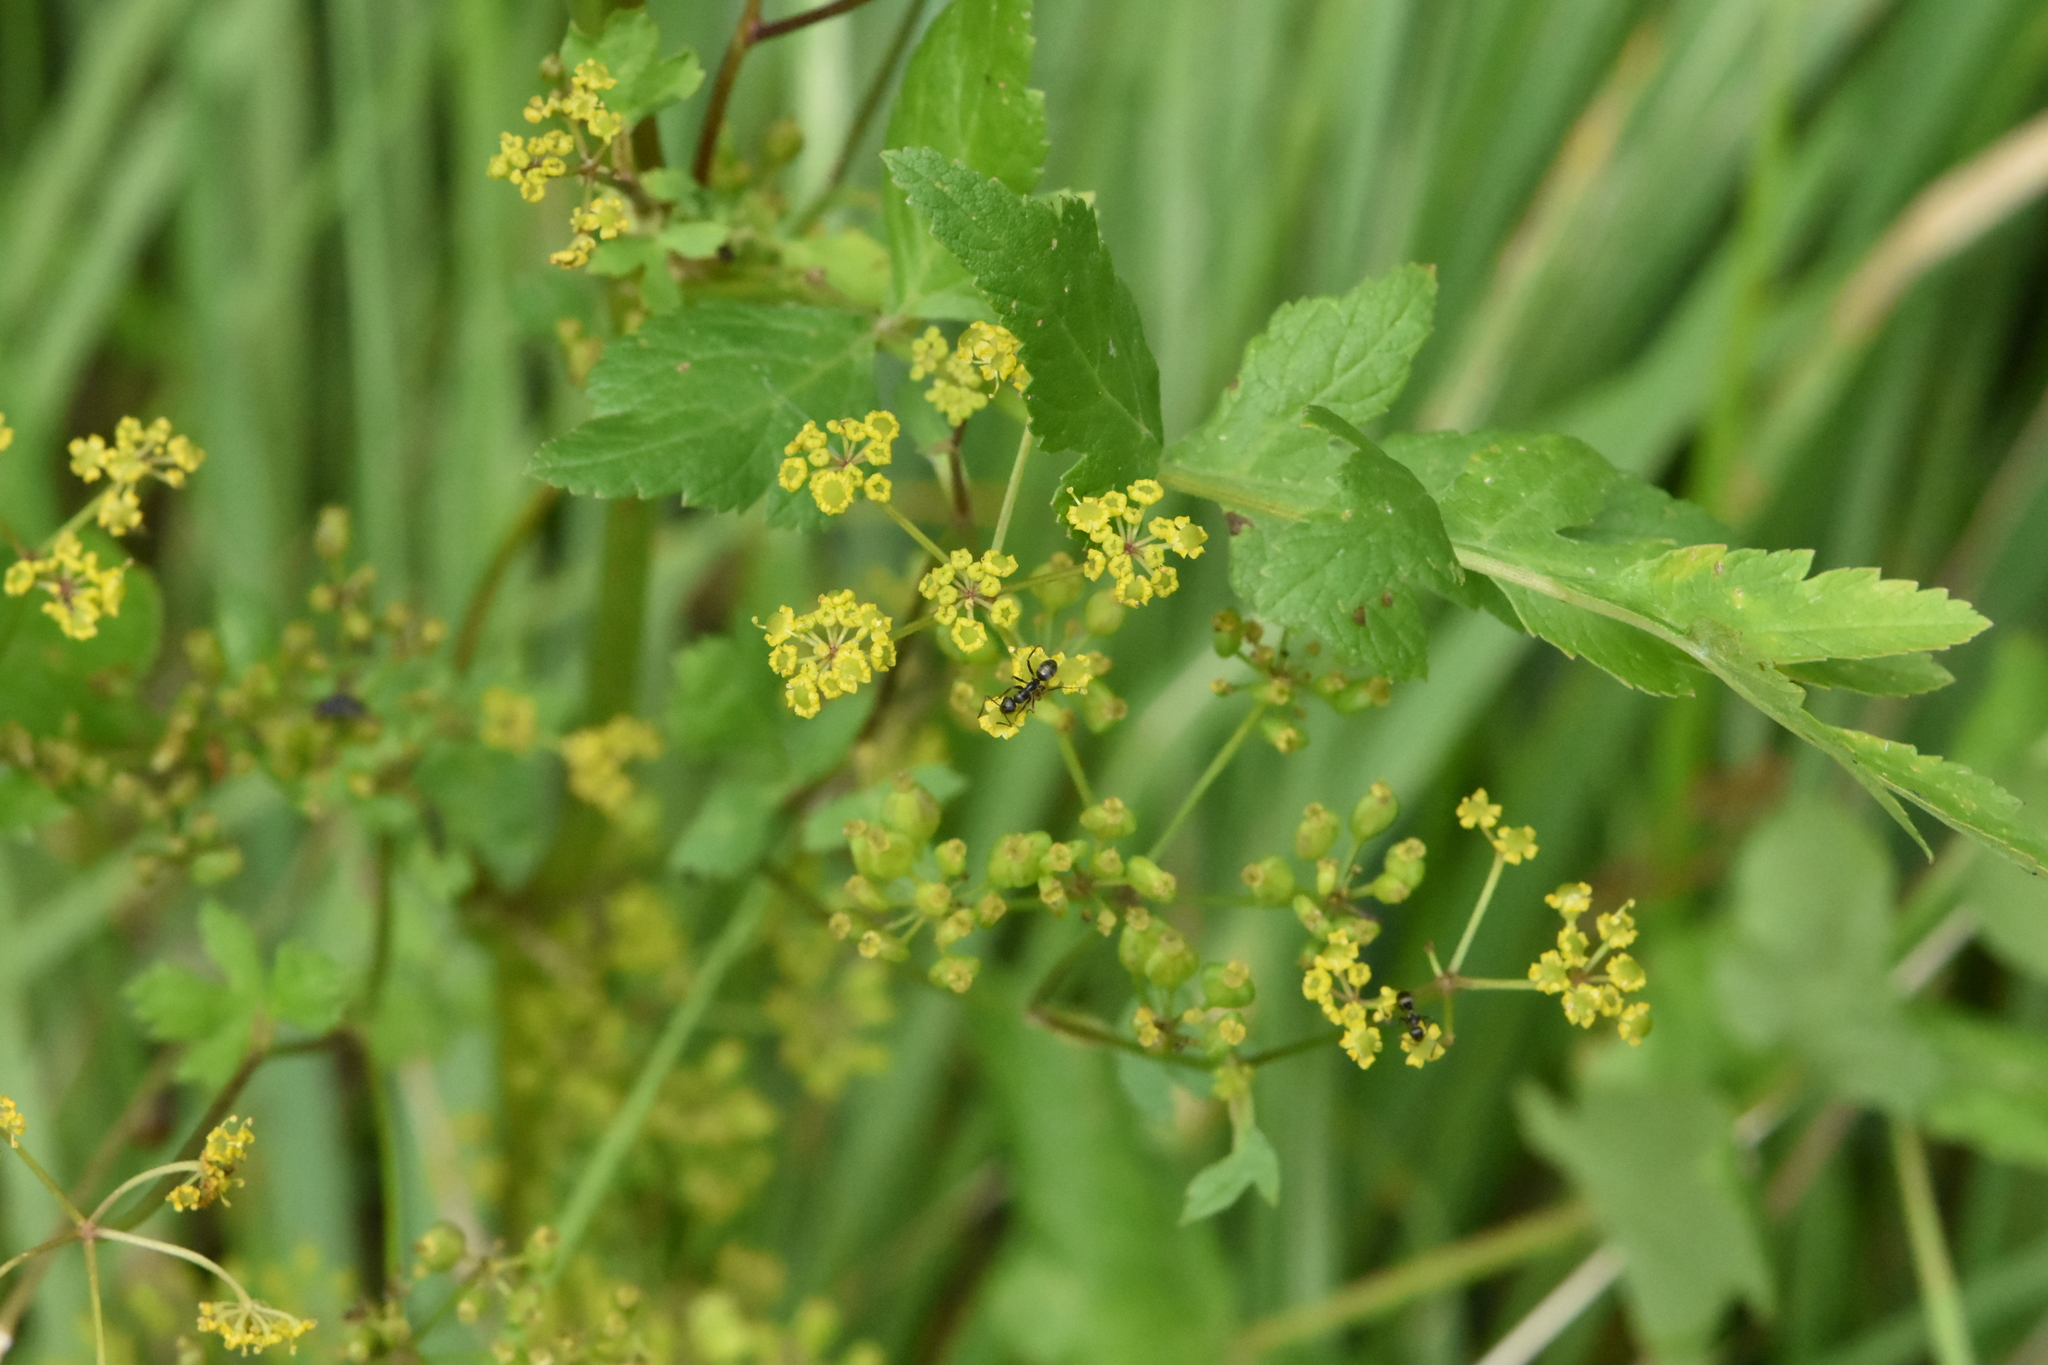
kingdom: Plantae
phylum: Tracheophyta
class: Magnoliopsida
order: Apiales
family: Apiaceae
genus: Pastinaca
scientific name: Pastinaca sativa
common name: Wild parsnip
